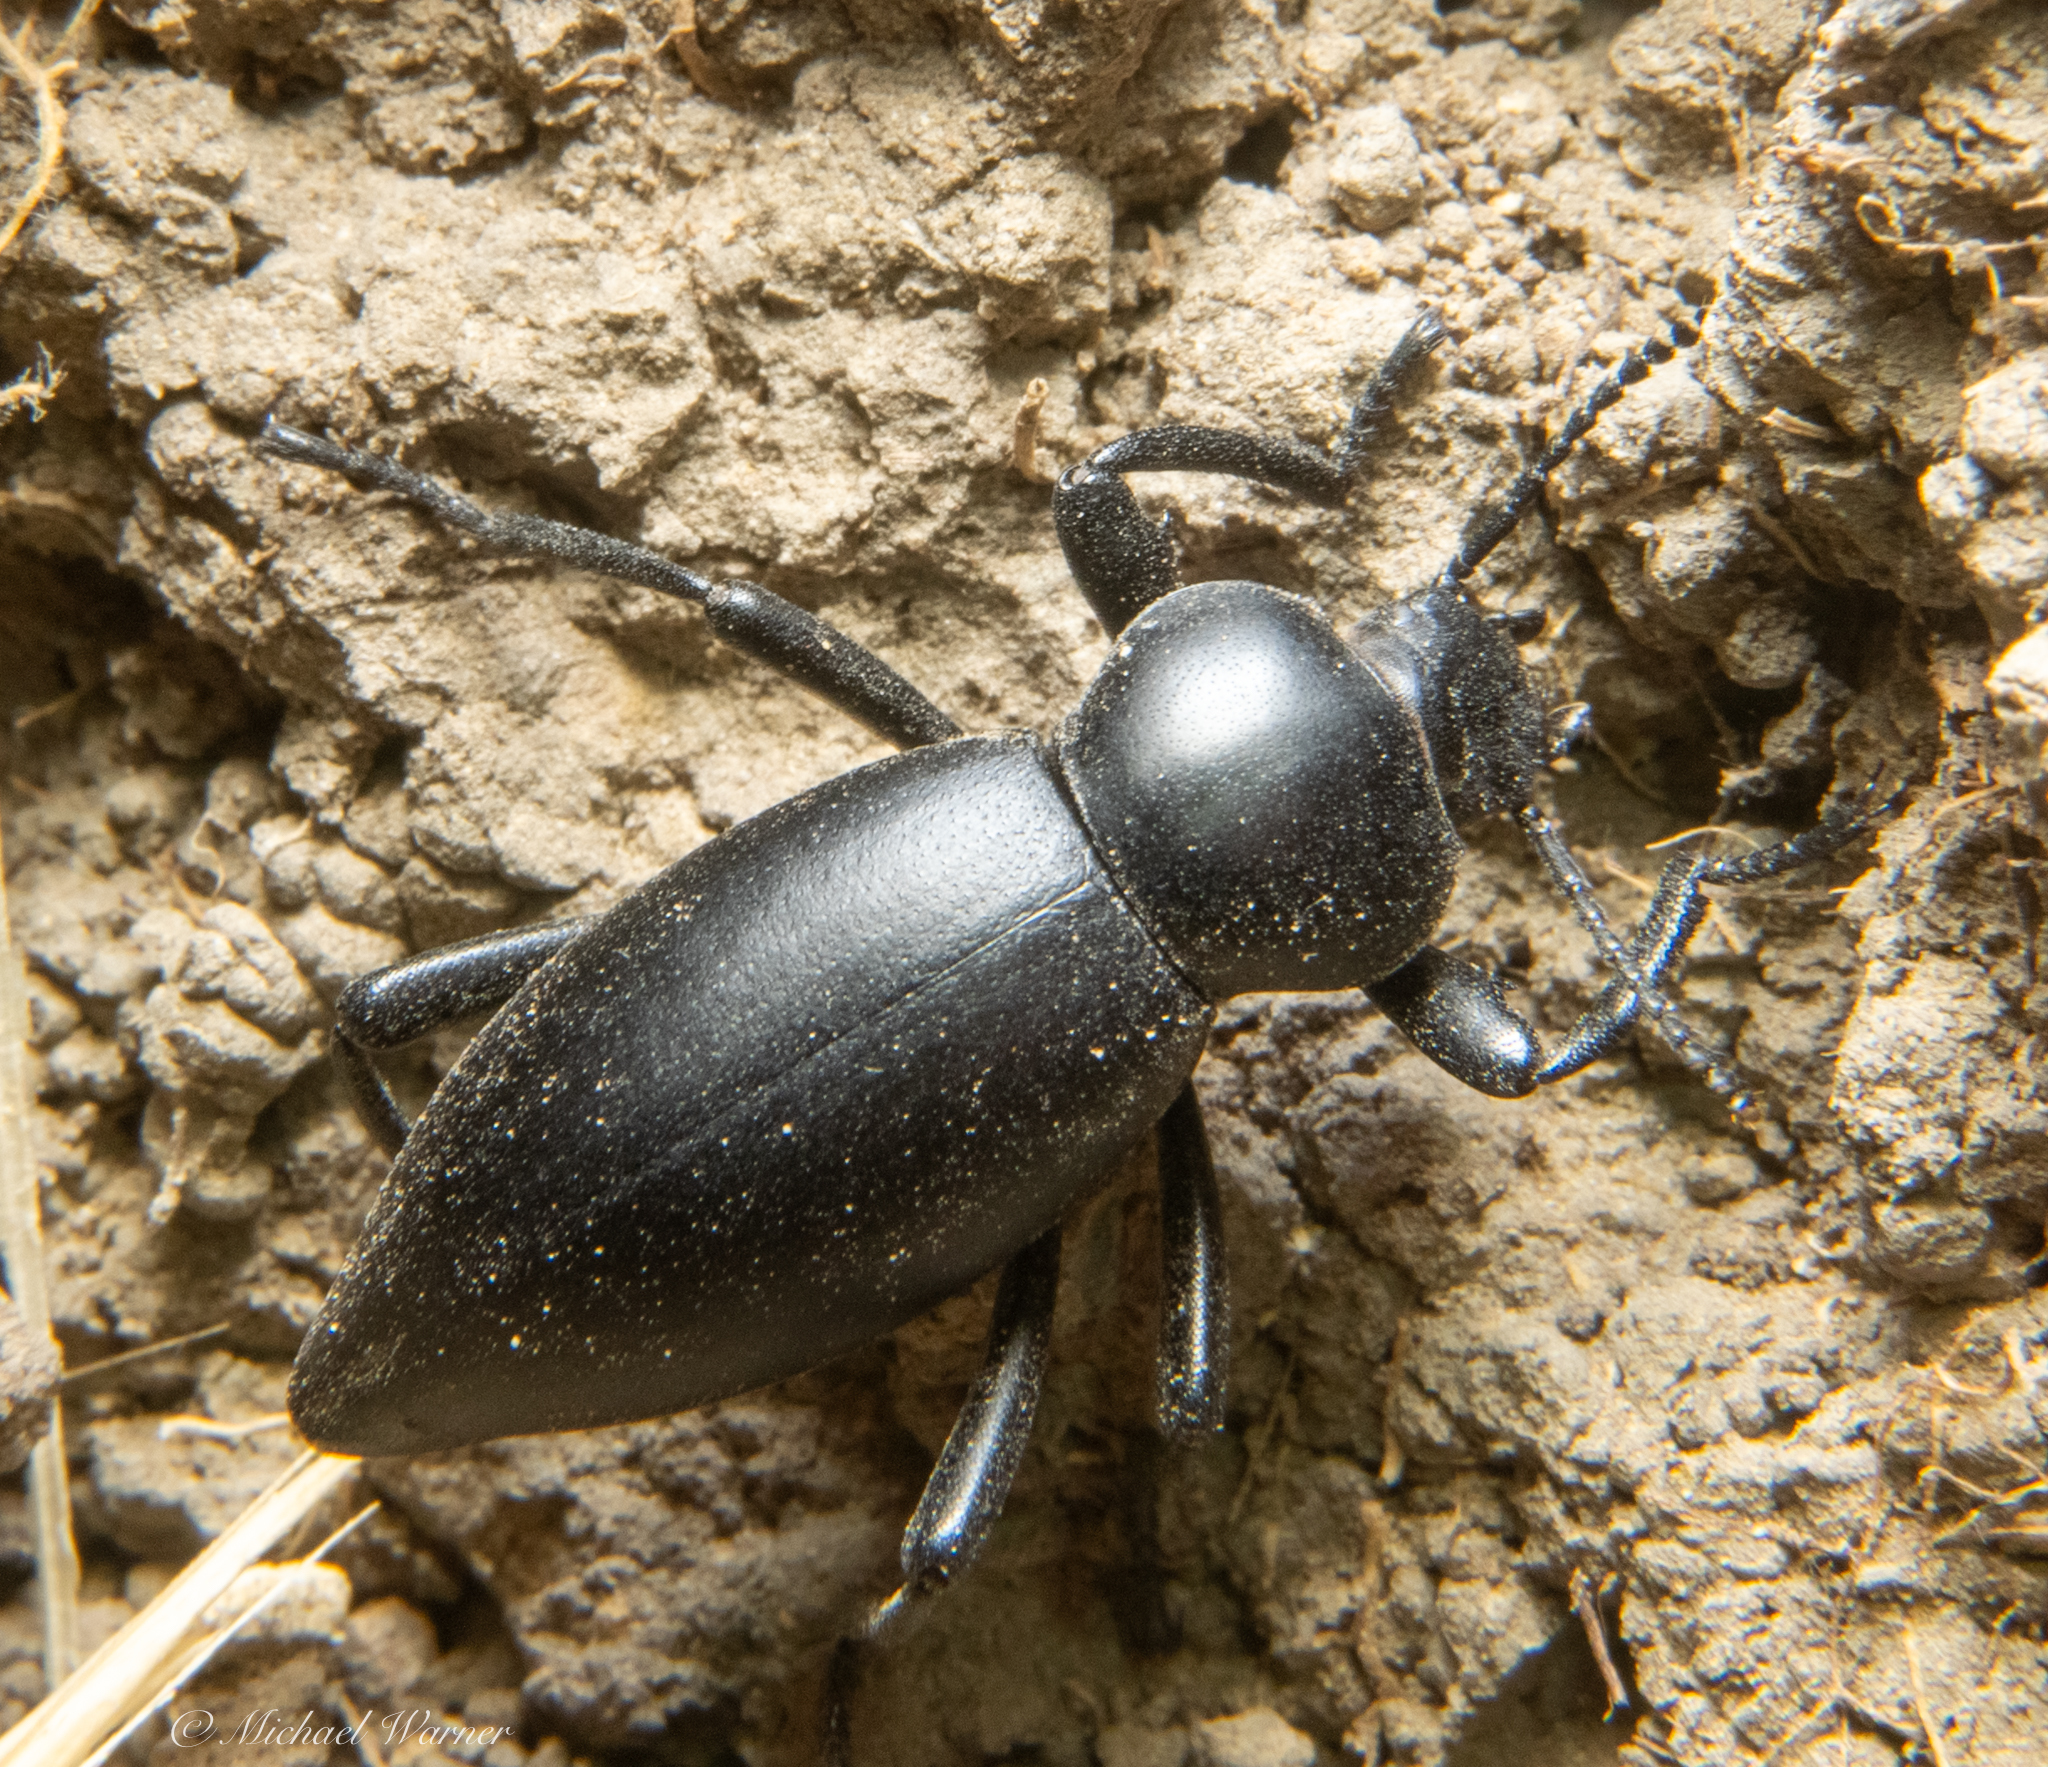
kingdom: Animalia
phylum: Arthropoda
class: Insecta
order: Coleoptera
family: Tenebrionidae
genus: Eleodes
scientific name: Eleodes dentipes
